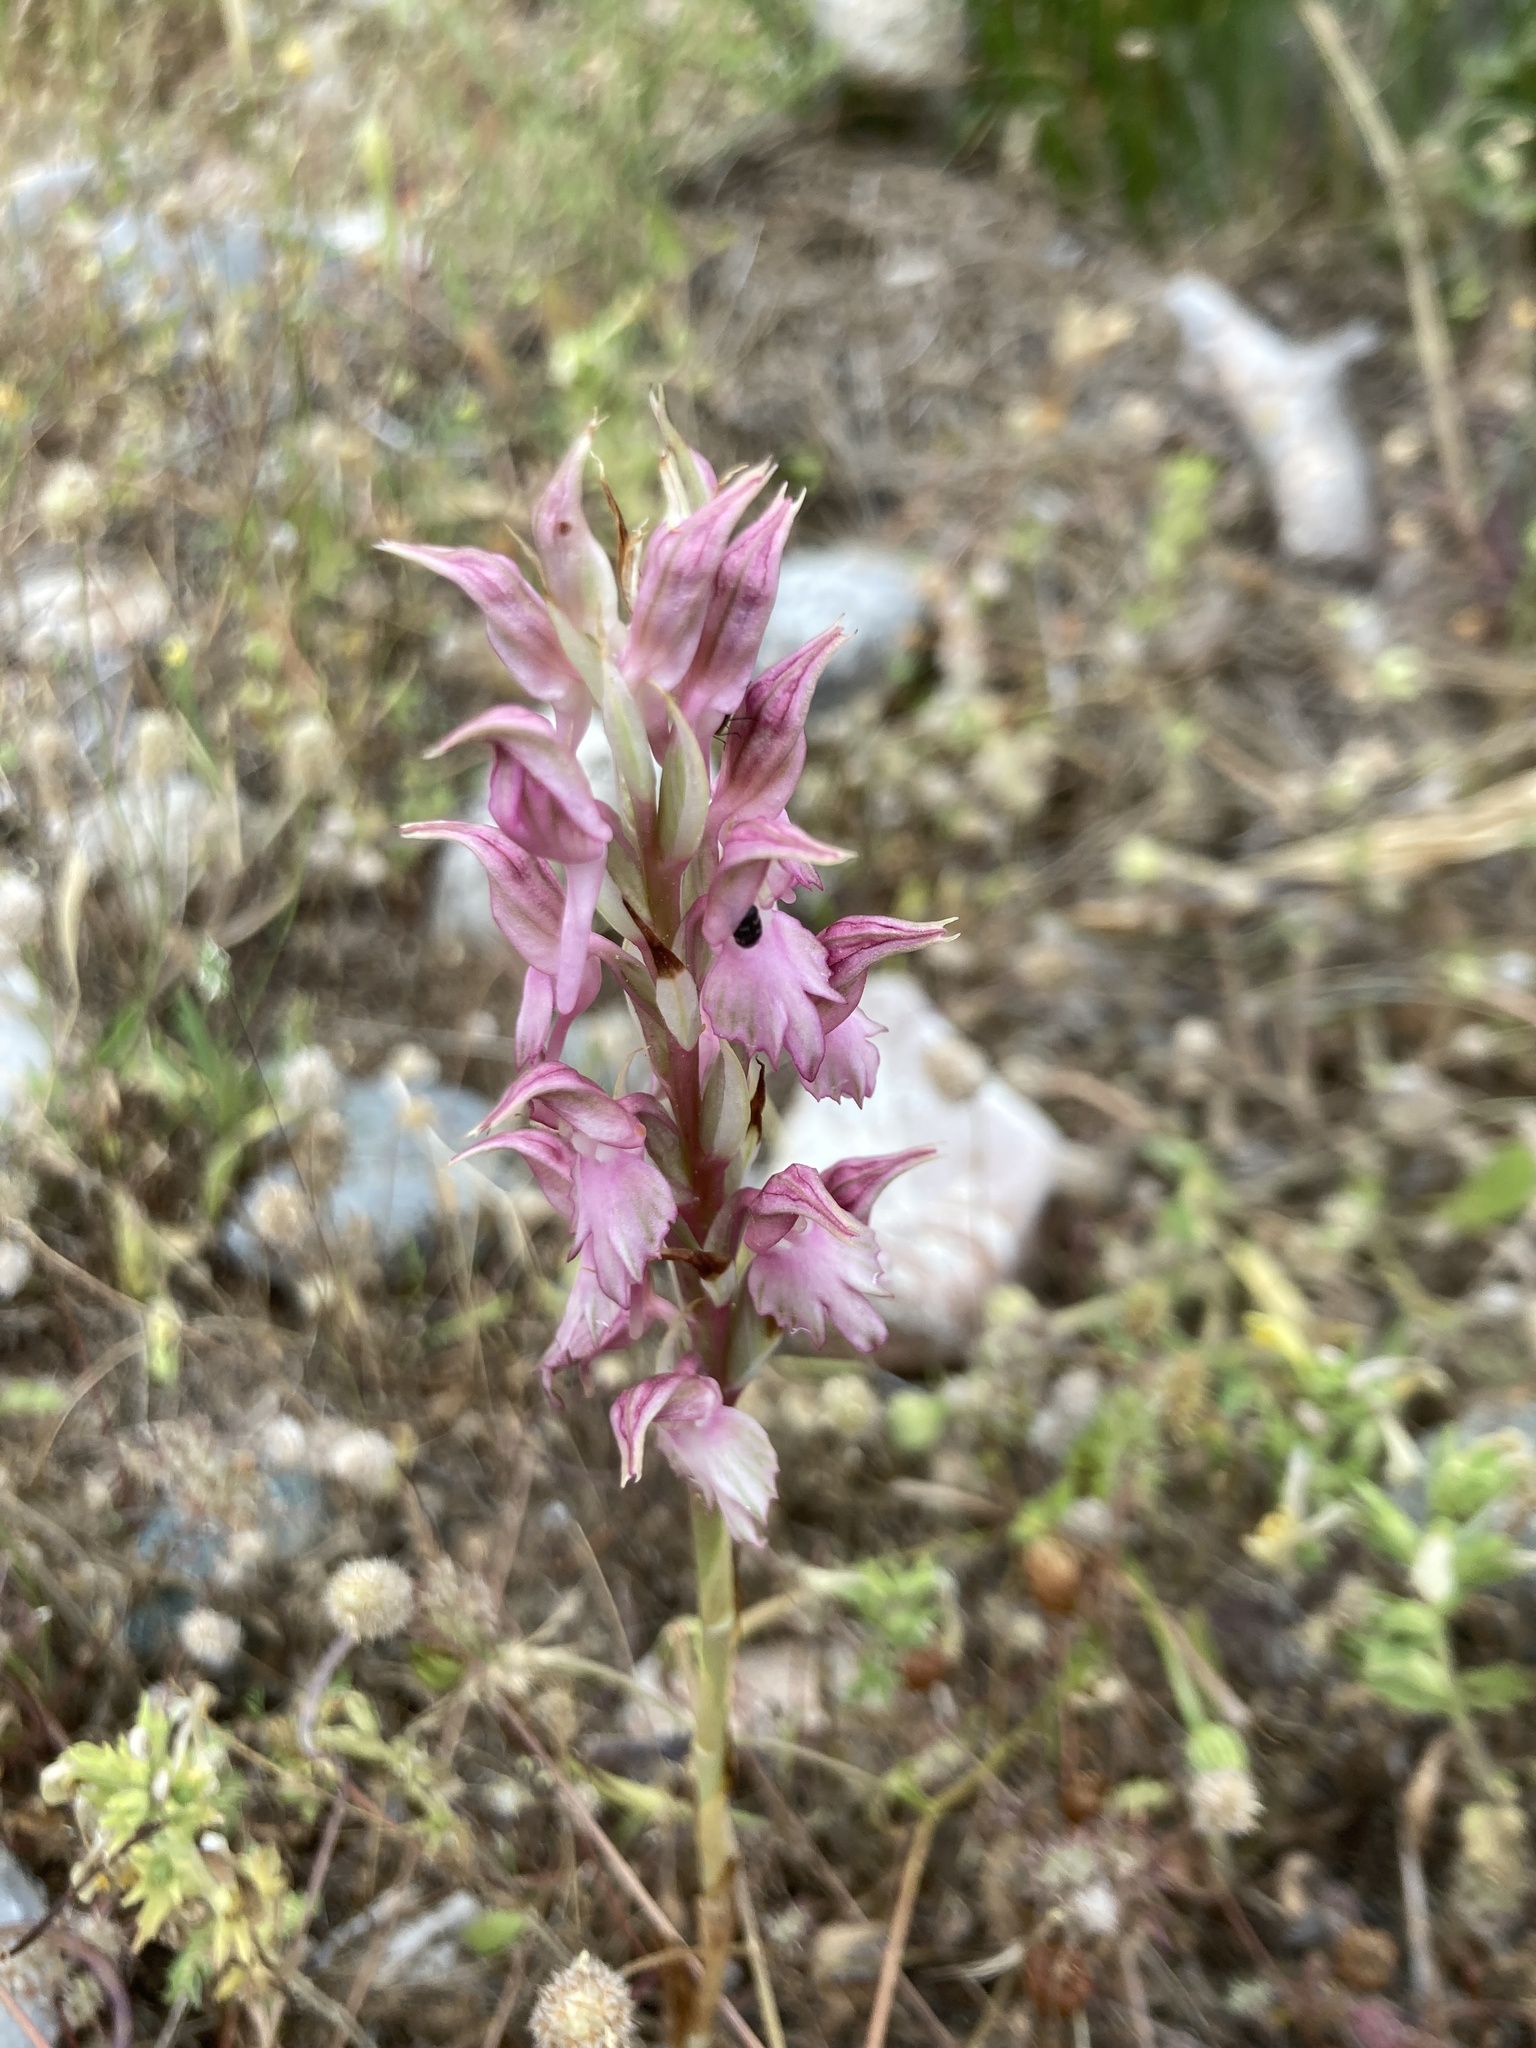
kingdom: Plantae
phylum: Tracheophyta
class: Liliopsida
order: Asparagales
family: Orchidaceae
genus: Anacamptis
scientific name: Anacamptis sancta
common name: Holy orchid
